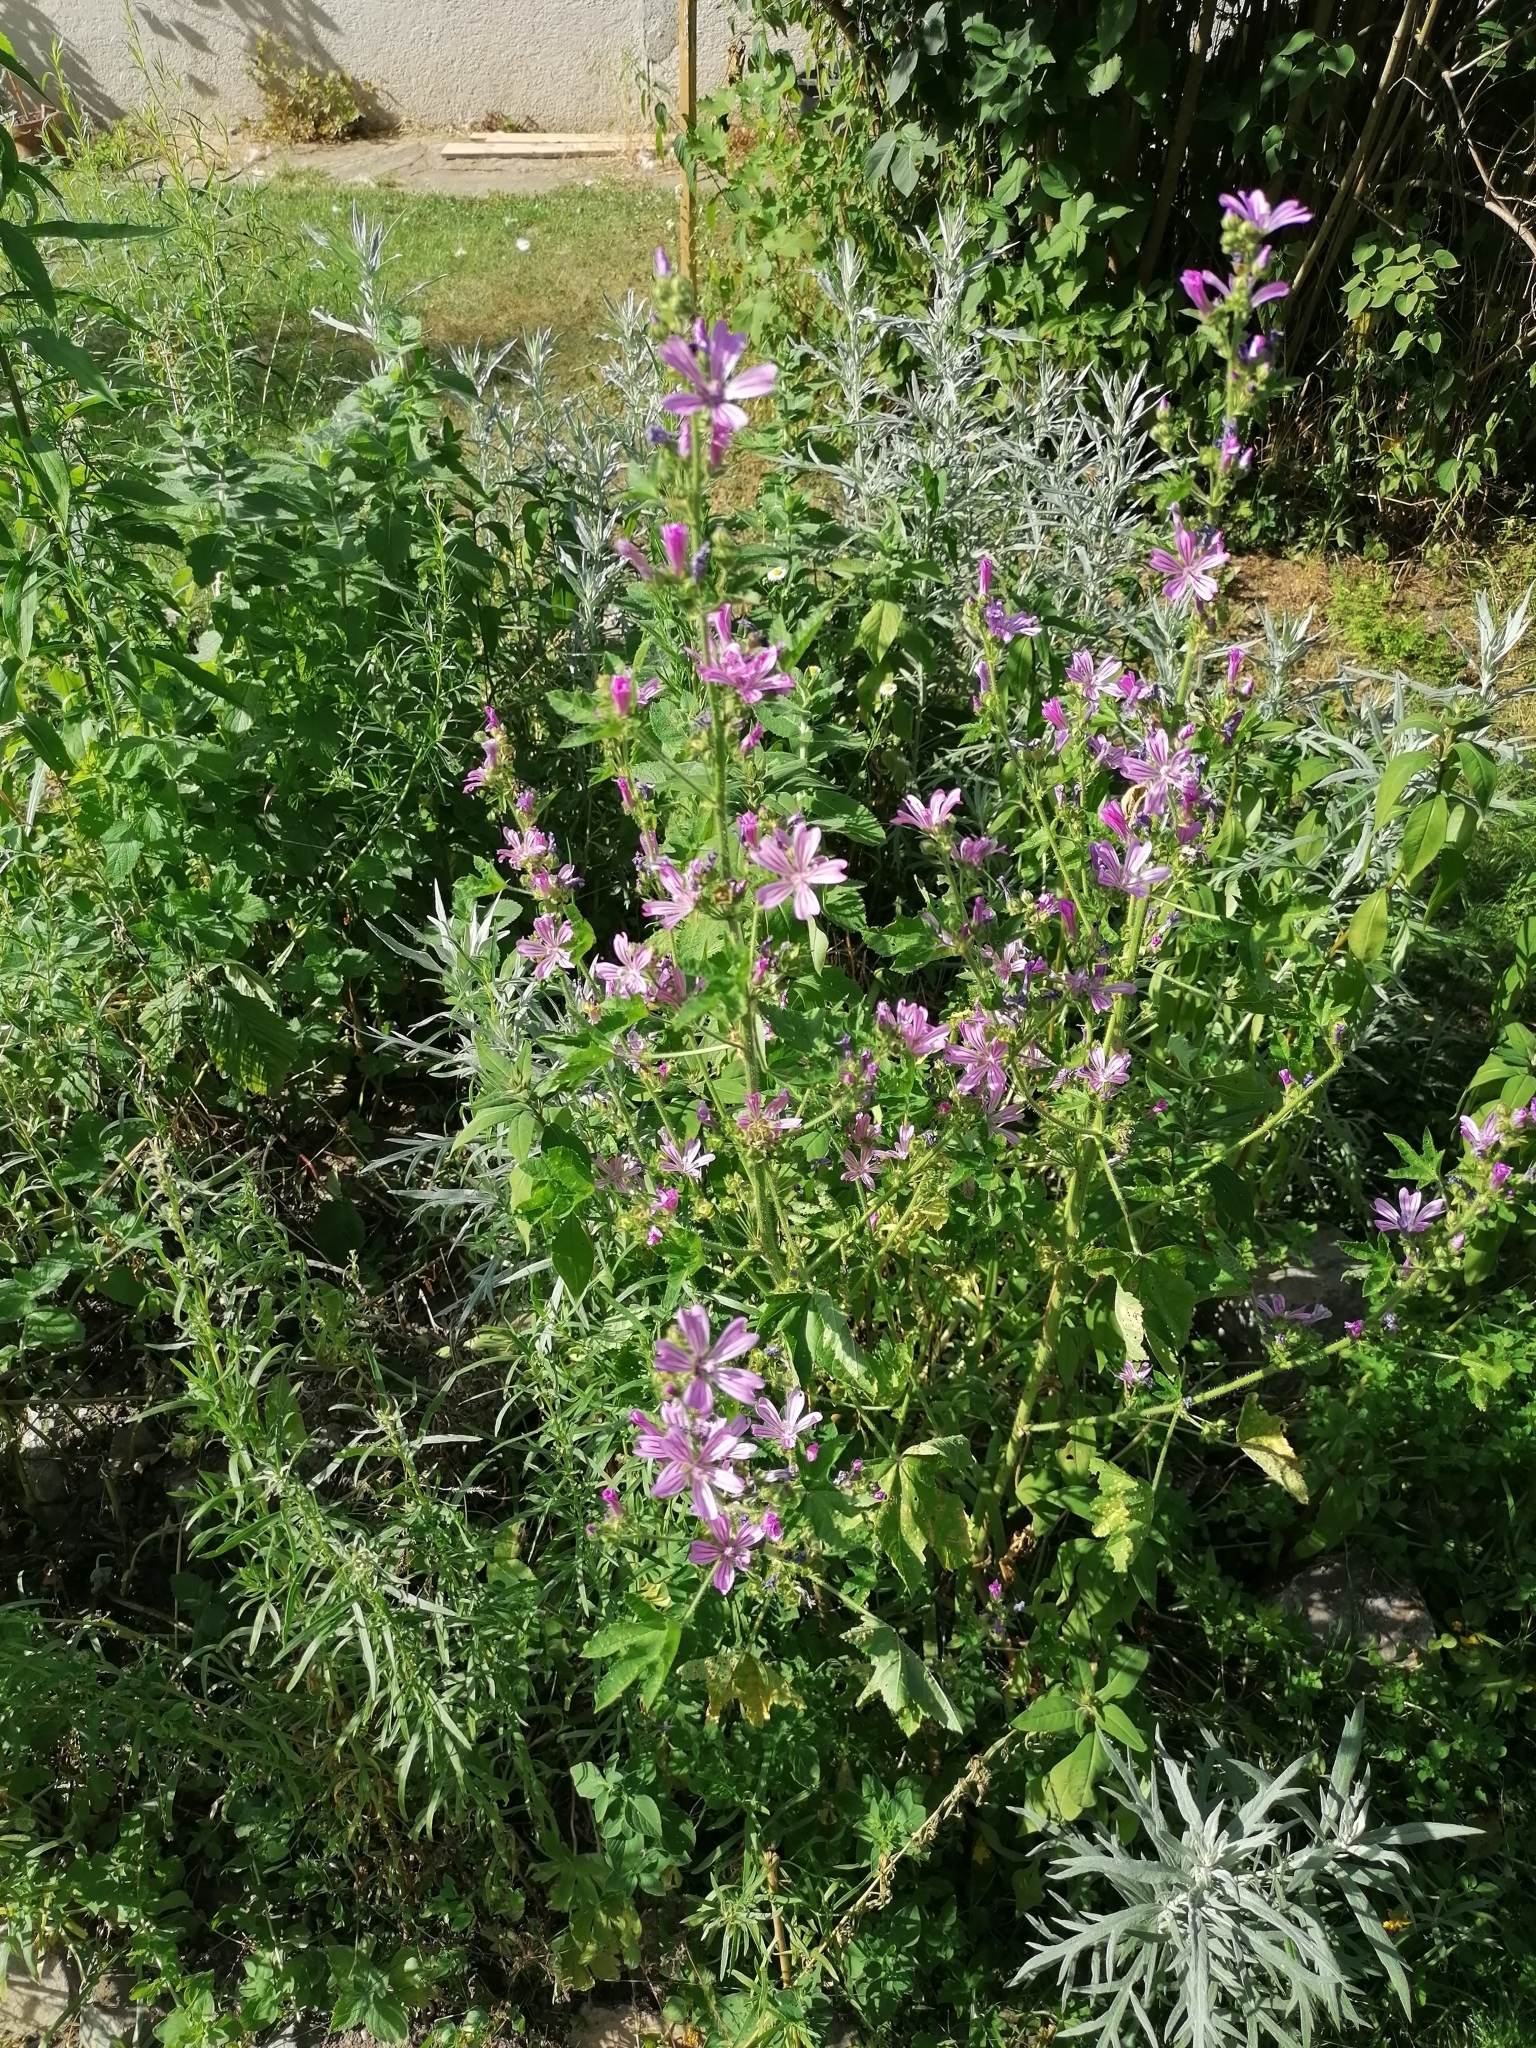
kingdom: Plantae
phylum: Tracheophyta
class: Magnoliopsida
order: Malvales
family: Malvaceae
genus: Malva
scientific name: Malva sylvestris
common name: Common mallow
